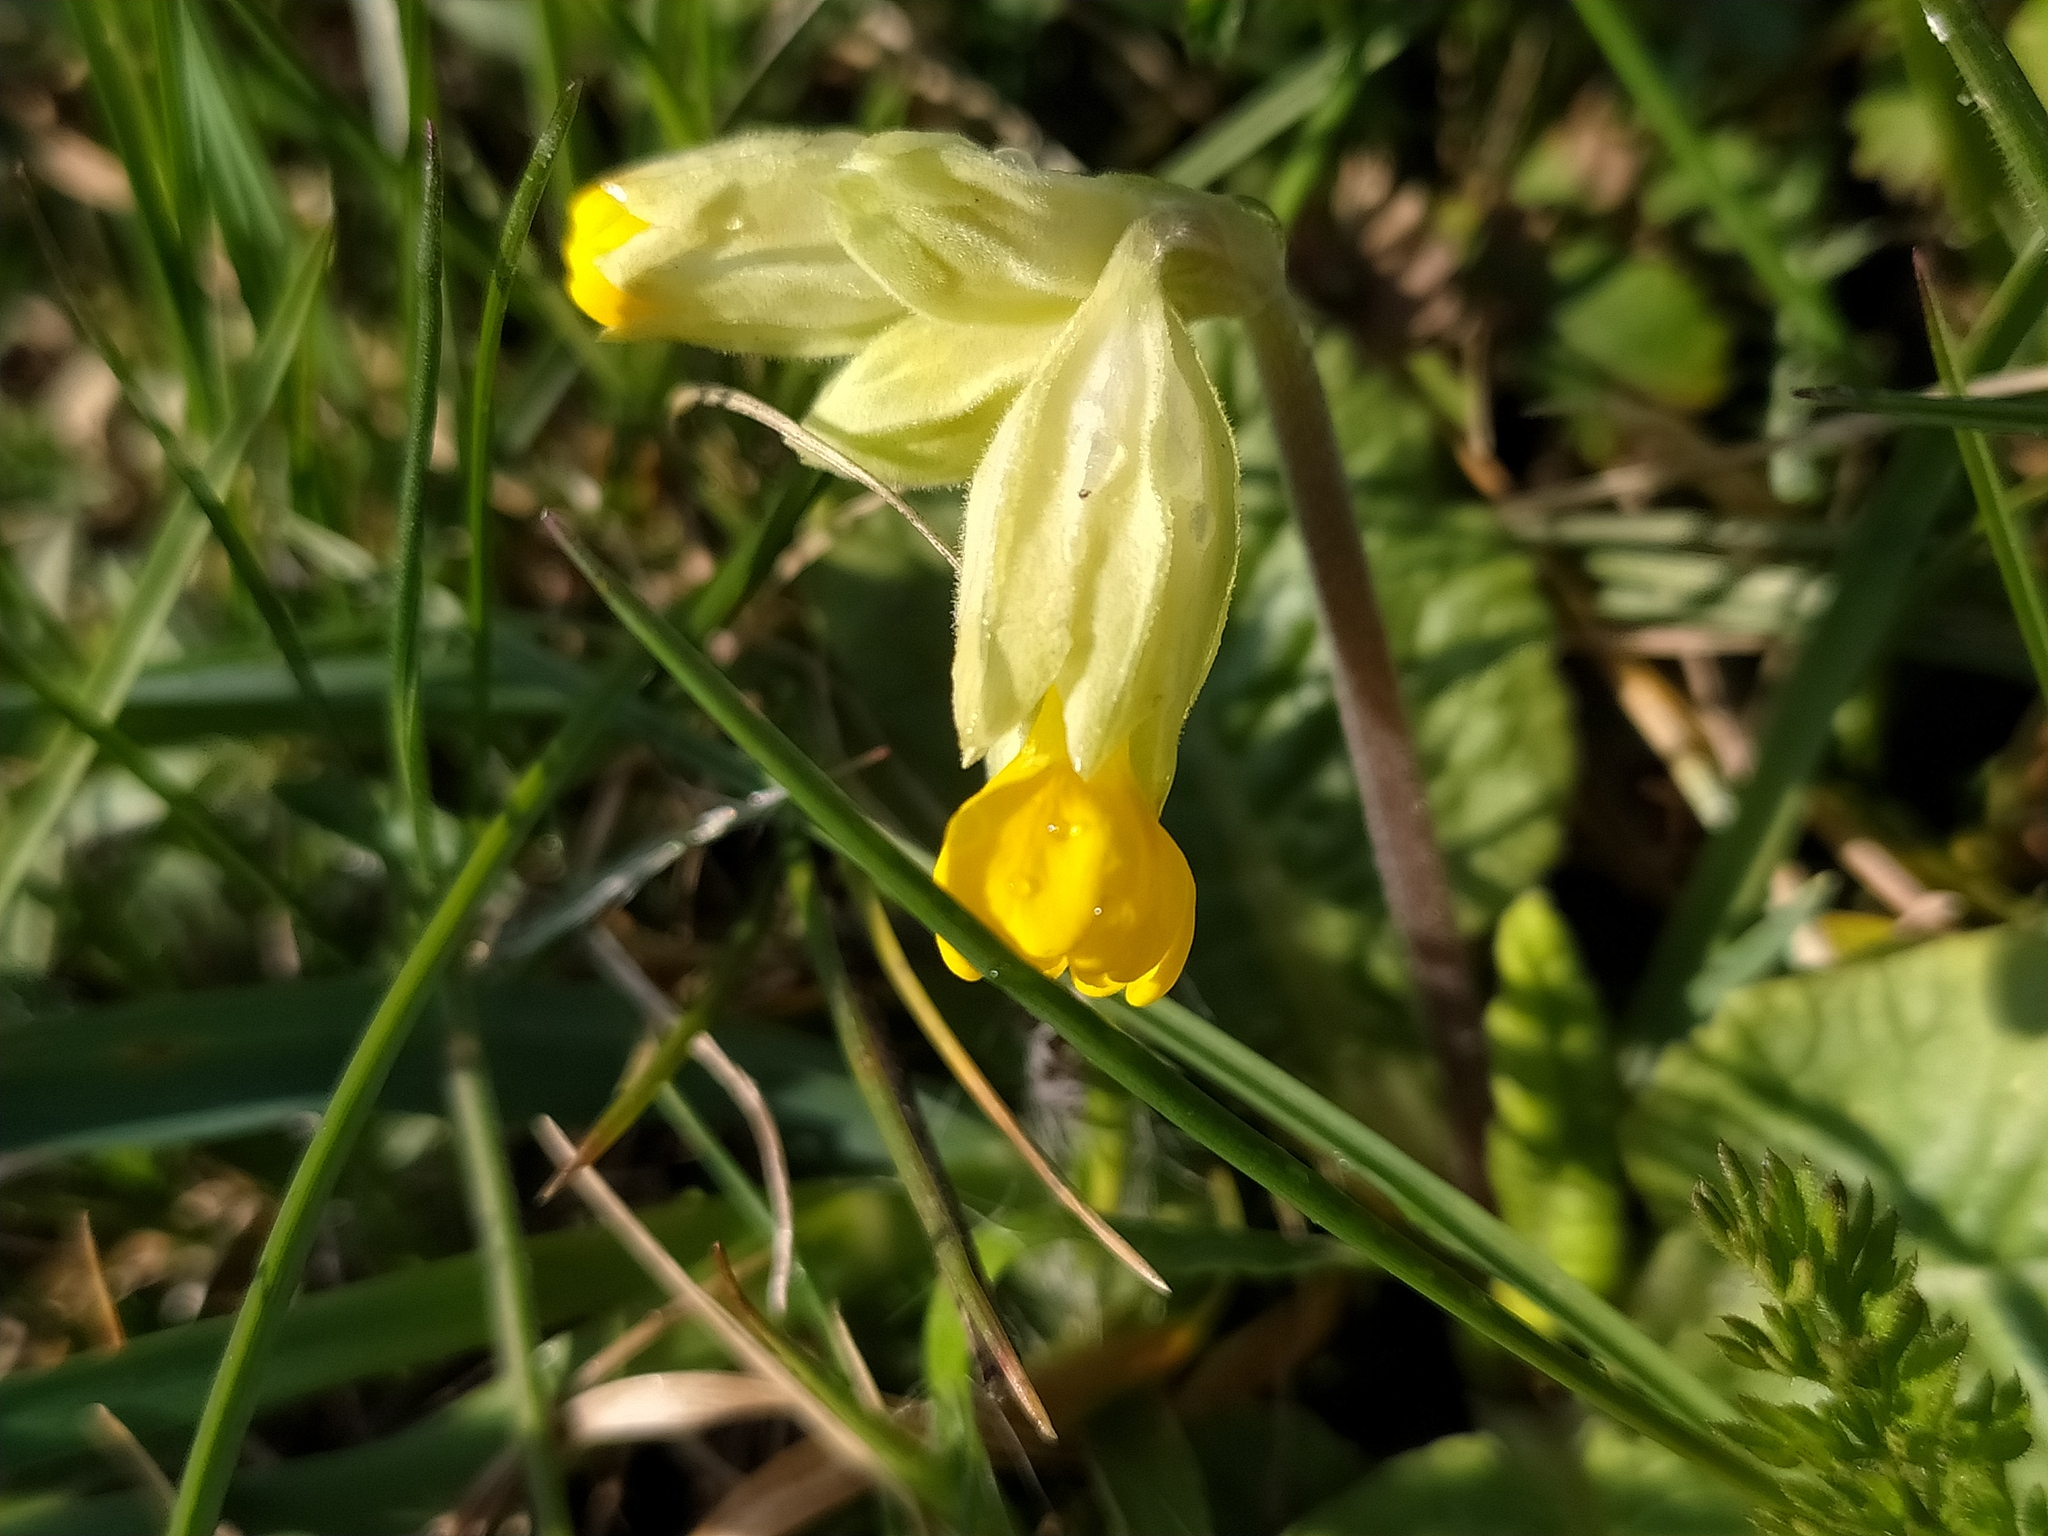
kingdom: Plantae
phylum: Tracheophyta
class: Magnoliopsida
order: Ericales
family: Primulaceae
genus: Primula
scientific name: Primula veris
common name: Cowslip
